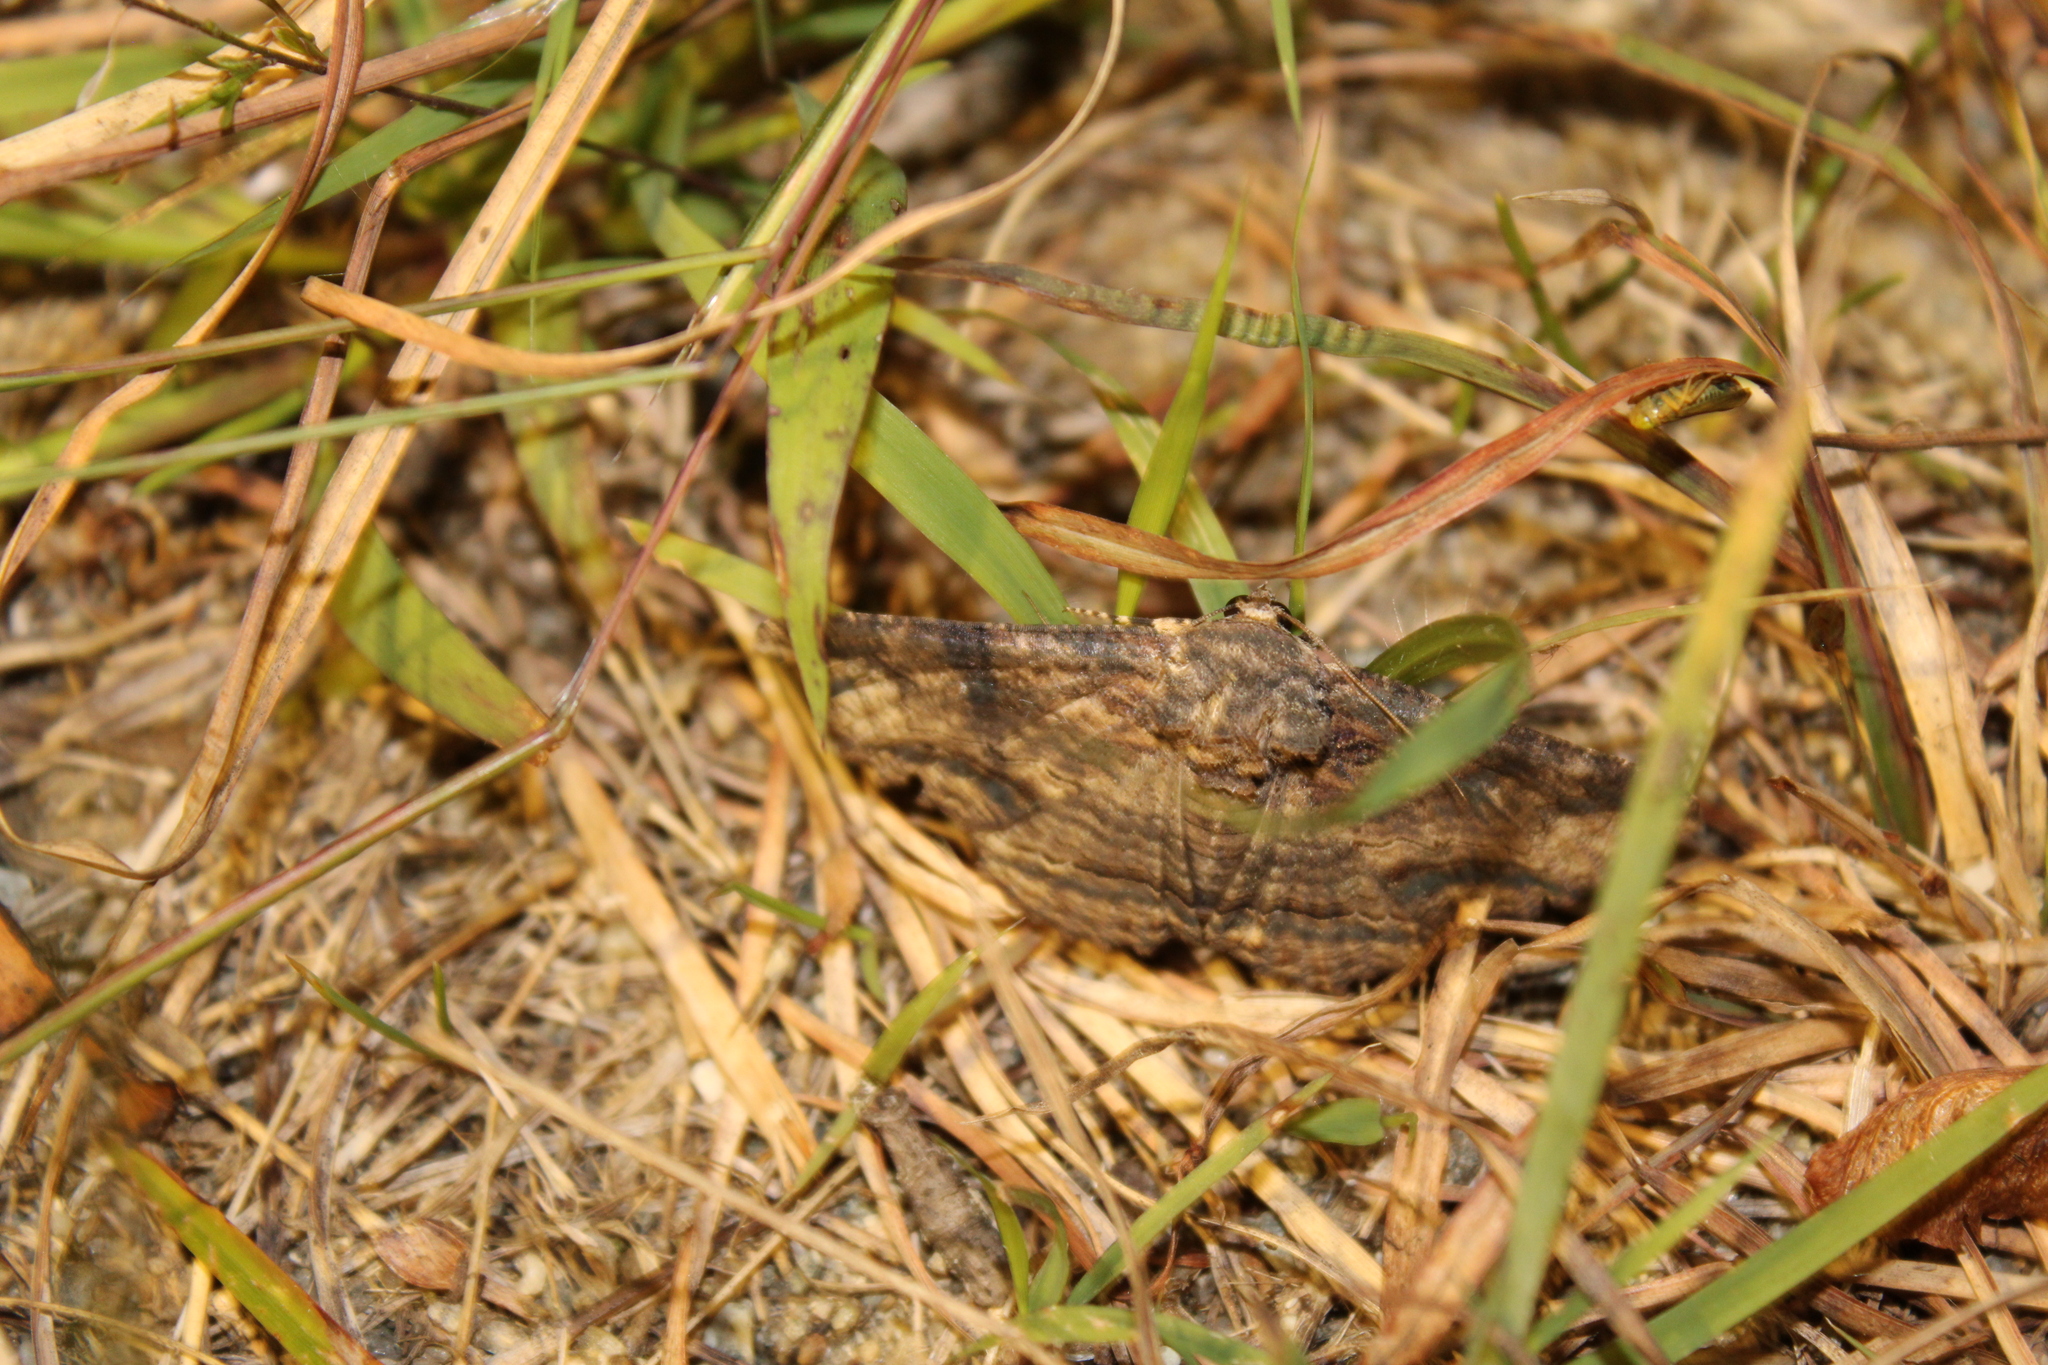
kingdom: Animalia
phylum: Arthropoda
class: Insecta
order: Lepidoptera
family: Erebidae
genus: Zale
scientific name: Zale lunata
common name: Lunate zale moth
